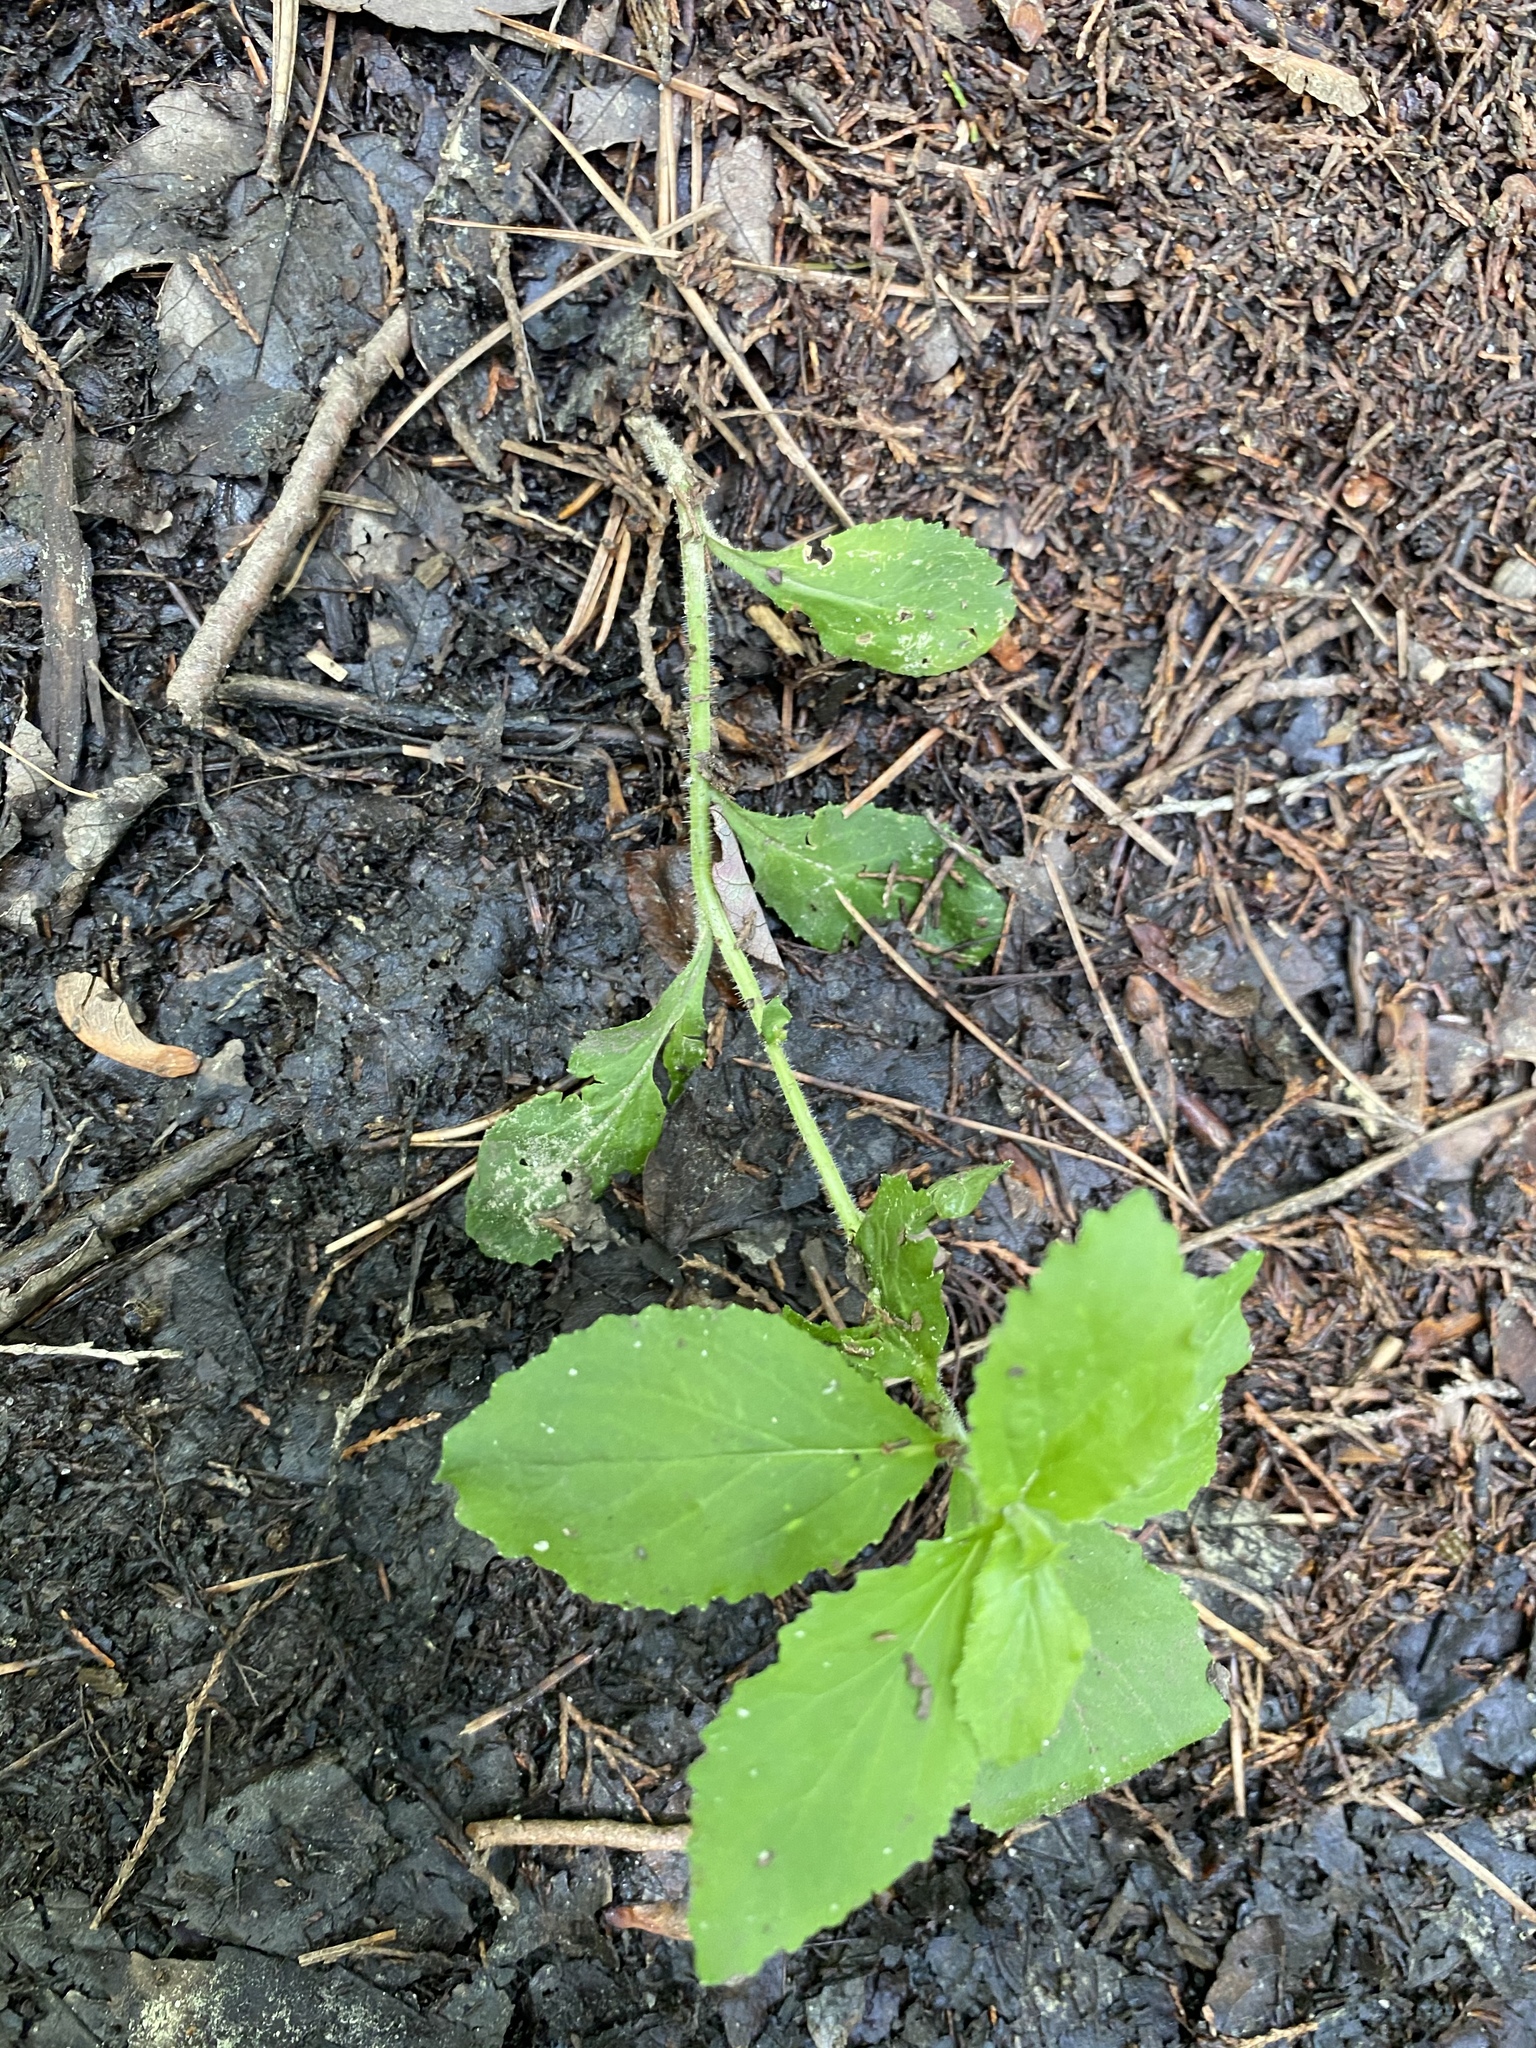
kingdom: Plantae
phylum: Tracheophyta
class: Magnoliopsida
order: Asterales
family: Campanulaceae
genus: Lobelia
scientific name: Lobelia inflata
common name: Indian tobacco
